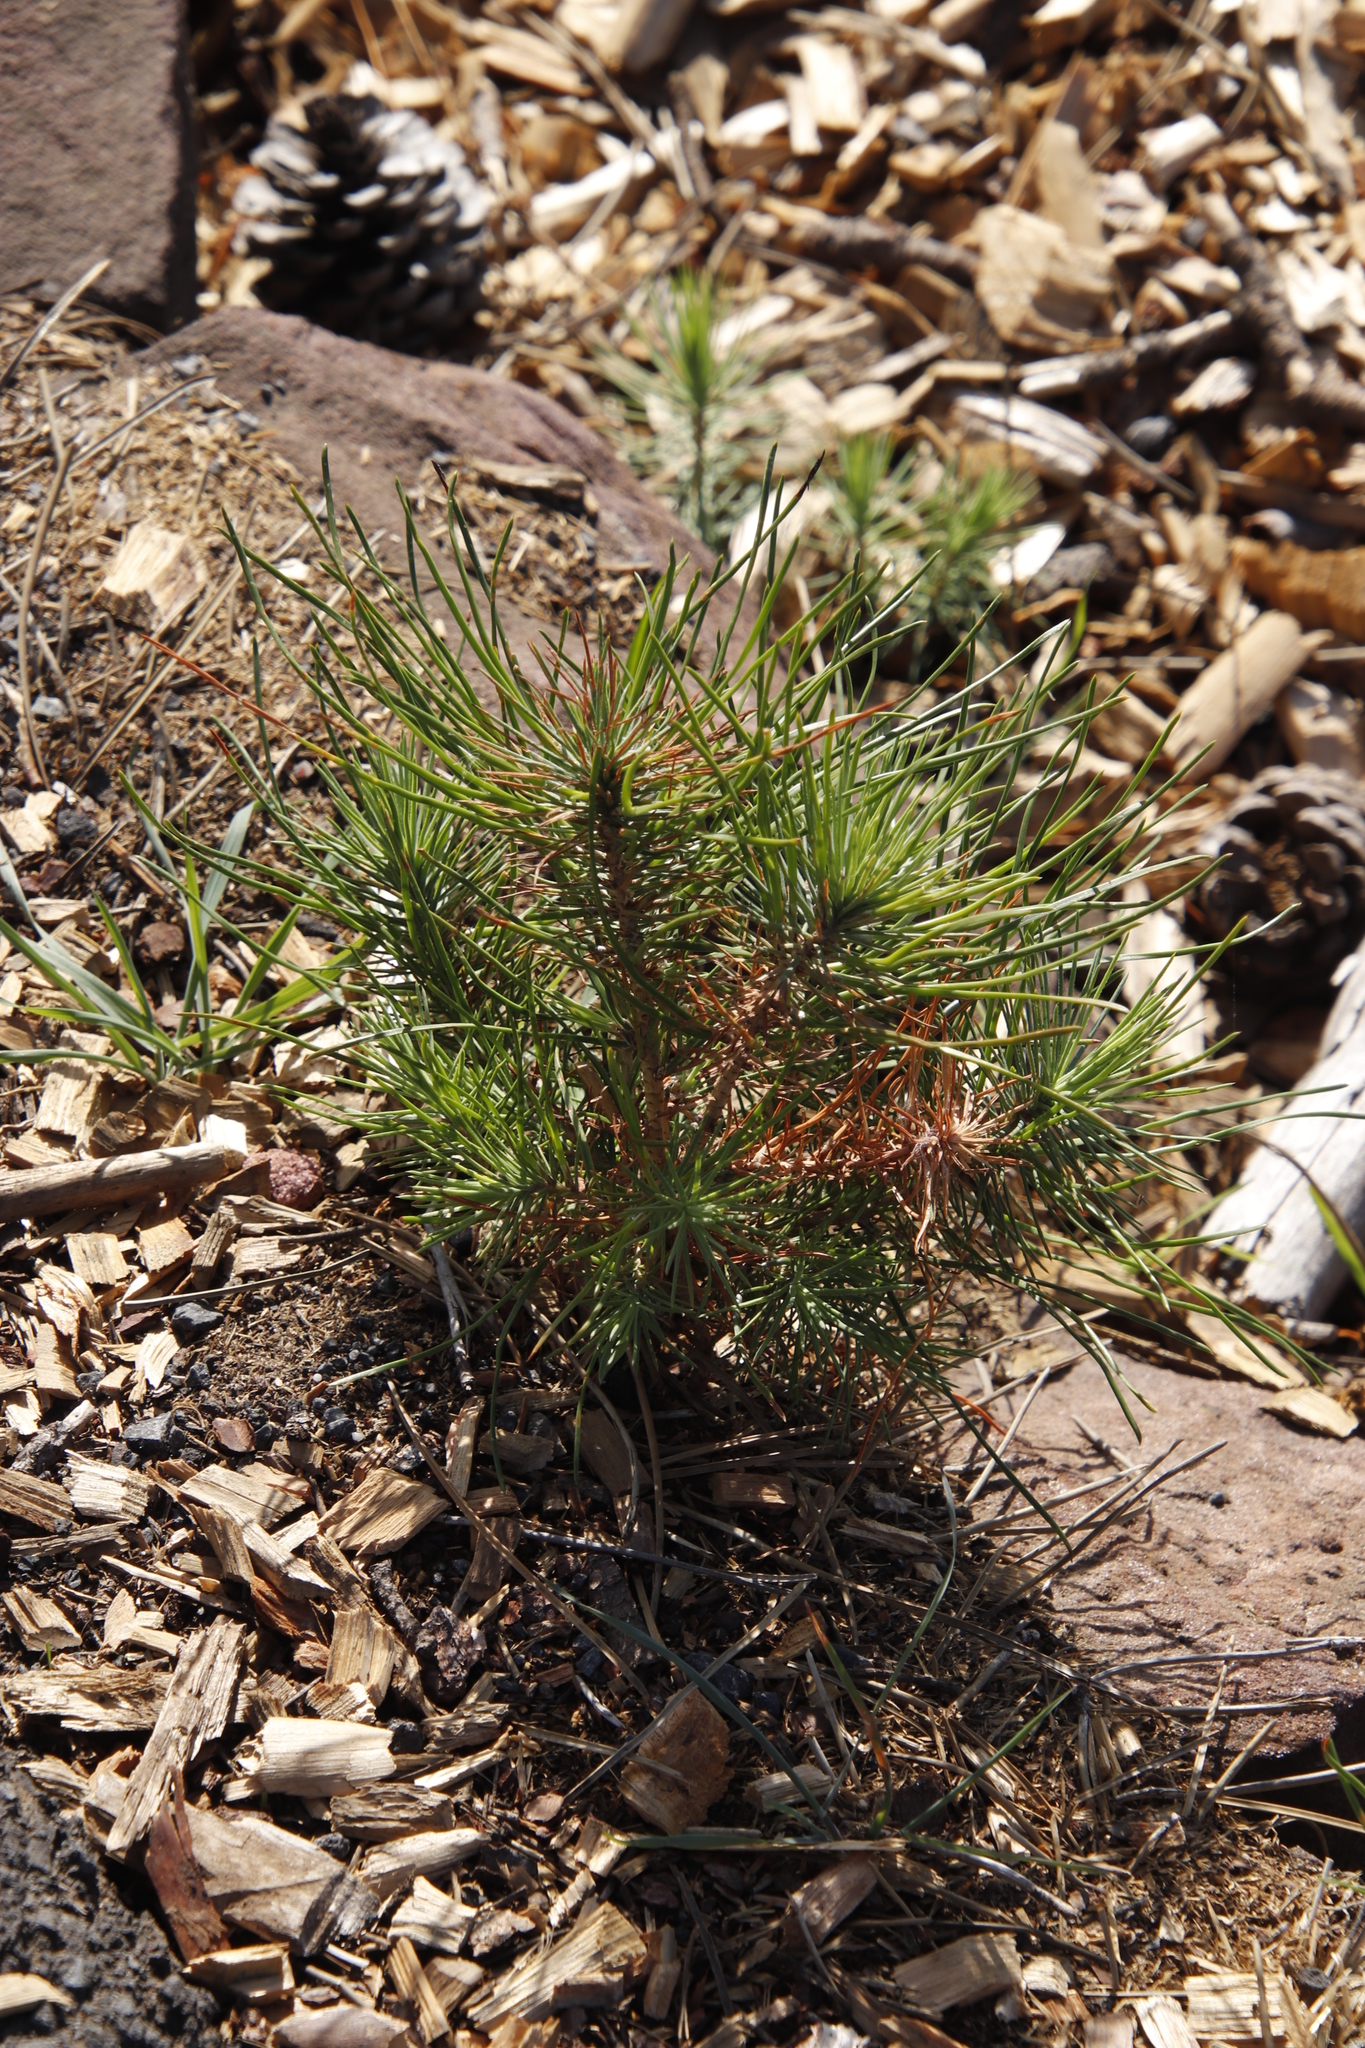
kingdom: Plantae
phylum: Tracheophyta
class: Pinopsida
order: Pinales
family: Pinaceae
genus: Pinus
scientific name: Pinus pinea
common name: Italian stone pine
